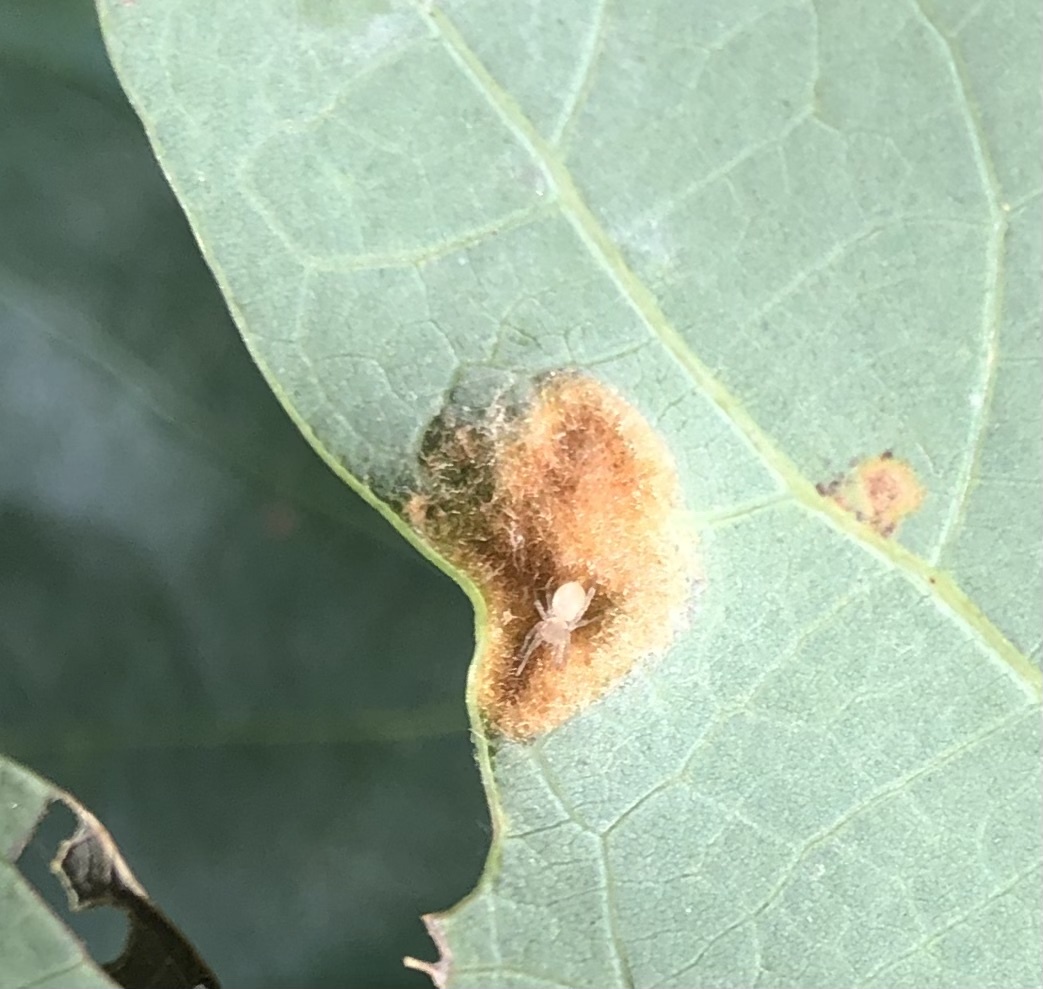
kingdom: Animalia
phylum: Arthropoda
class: Arachnida
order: Trombidiformes
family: Eriophyidae
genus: Aceria
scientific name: Aceria
